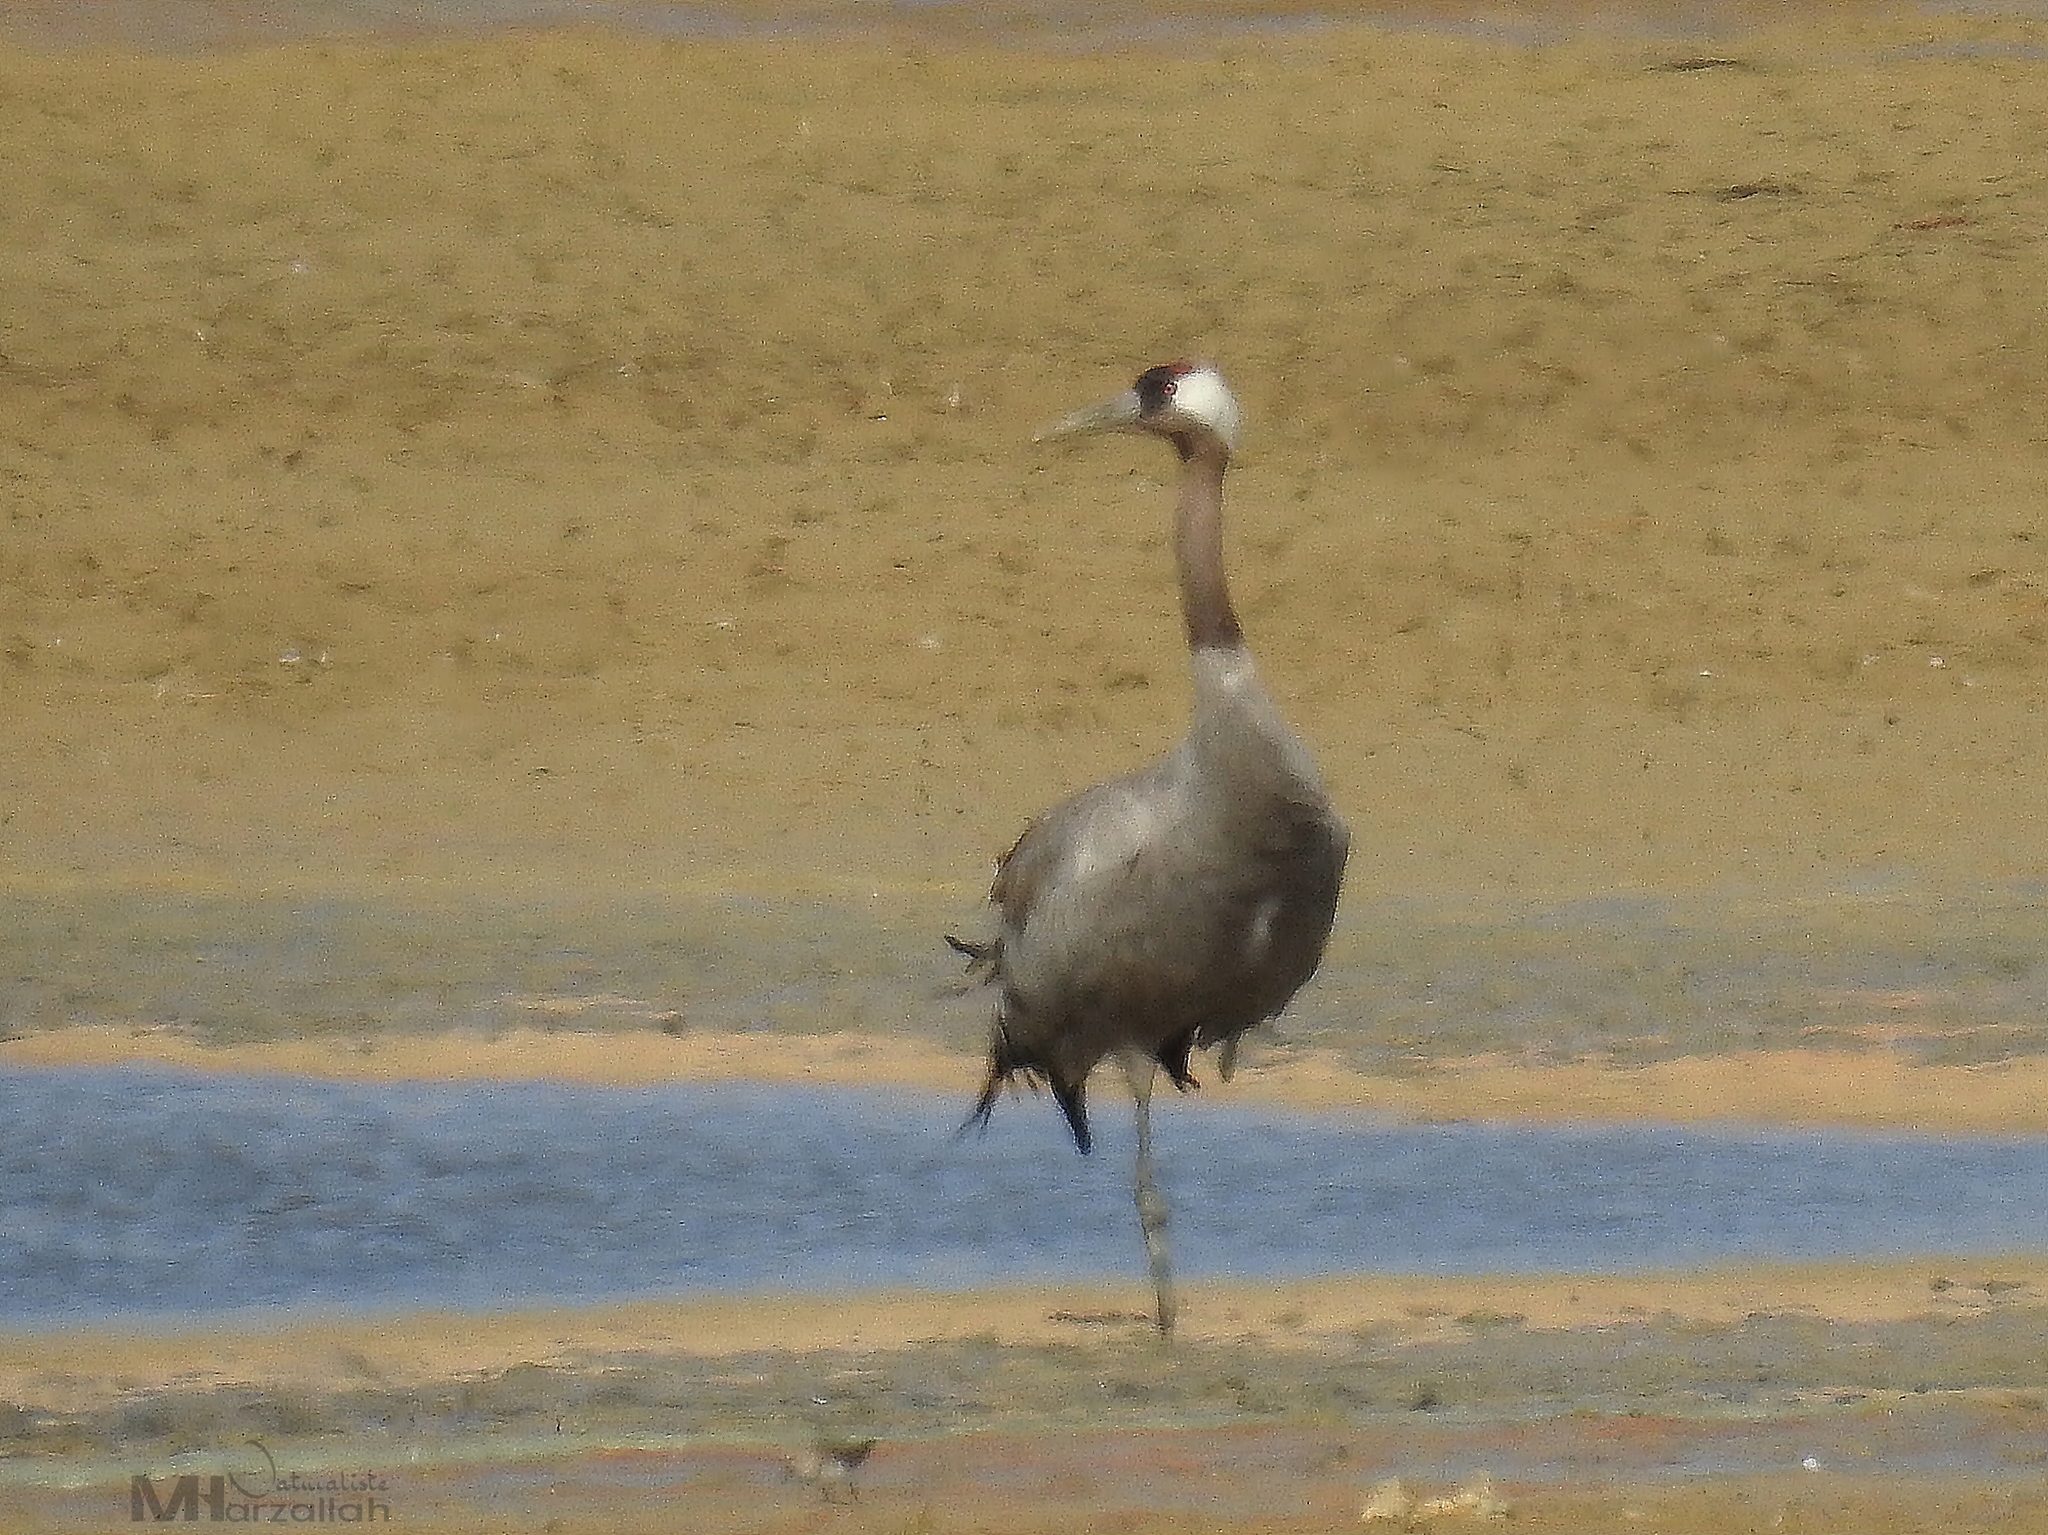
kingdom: Animalia
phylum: Chordata
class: Aves
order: Gruiformes
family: Gruidae
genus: Grus
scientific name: Grus grus
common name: Common crane
